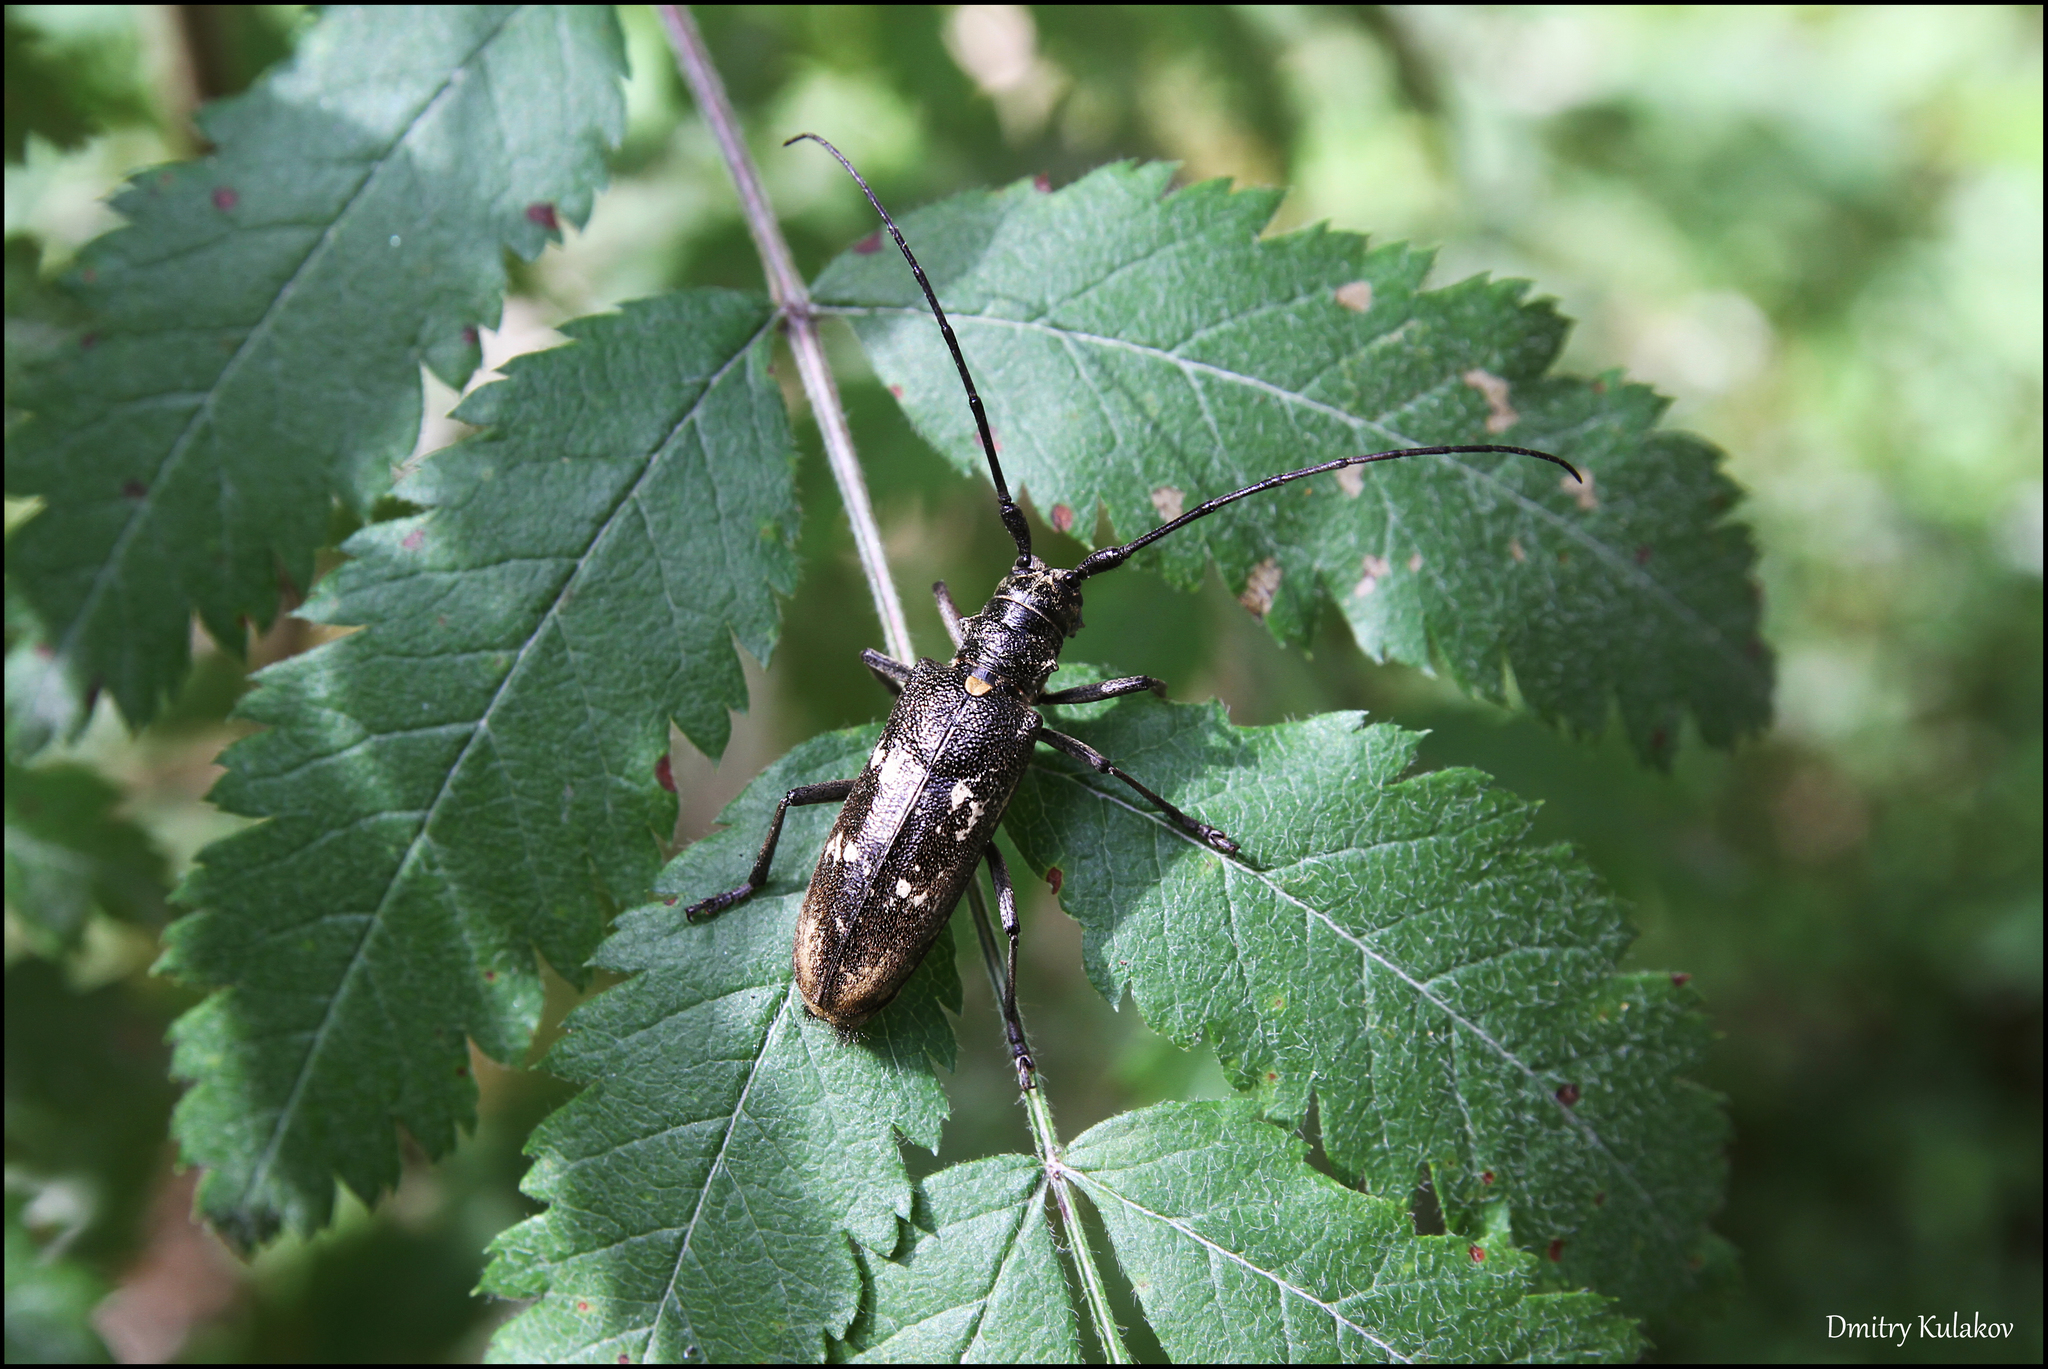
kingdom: Animalia
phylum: Arthropoda
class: Insecta
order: Coleoptera
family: Cerambycidae
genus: Monochamus
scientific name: Monochamus urussovii
